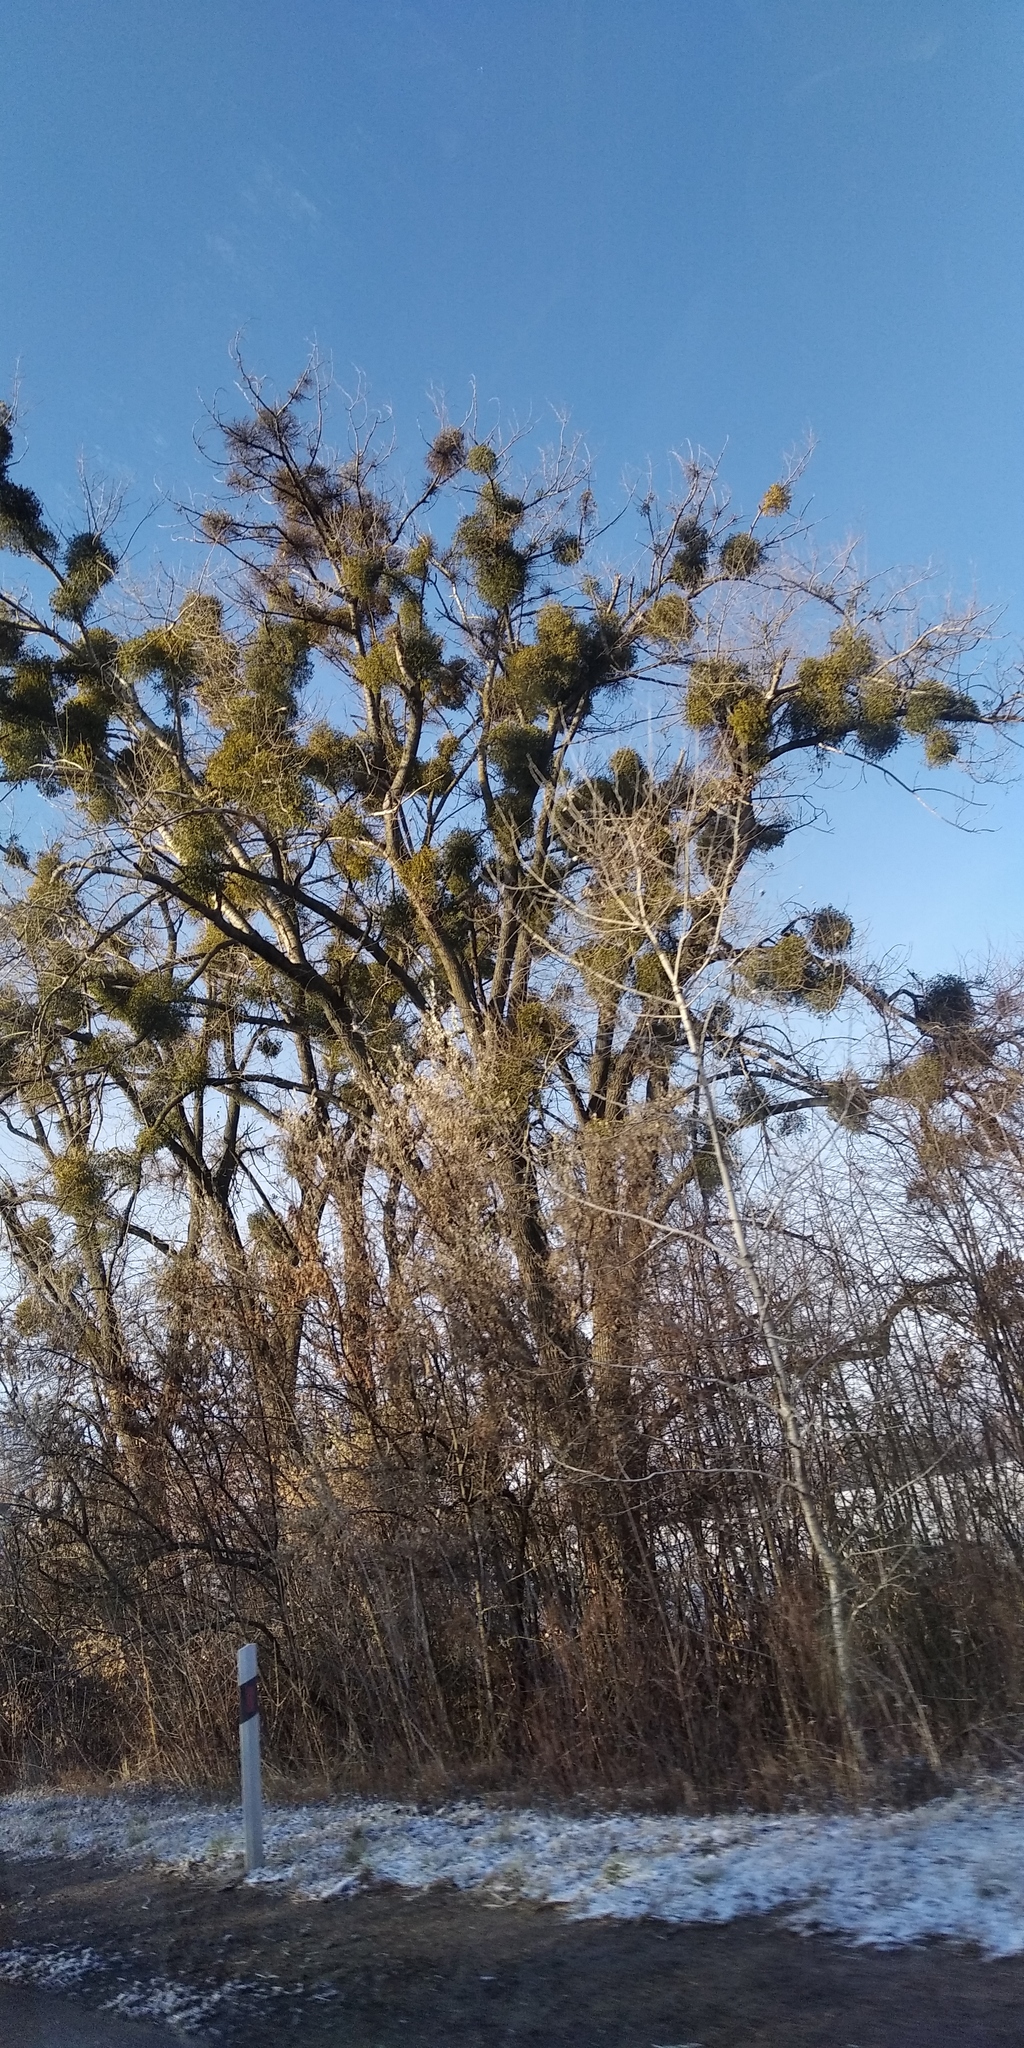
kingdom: Plantae
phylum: Tracheophyta
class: Magnoliopsida
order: Santalales
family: Viscaceae
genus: Viscum
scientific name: Viscum album
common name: Mistletoe
